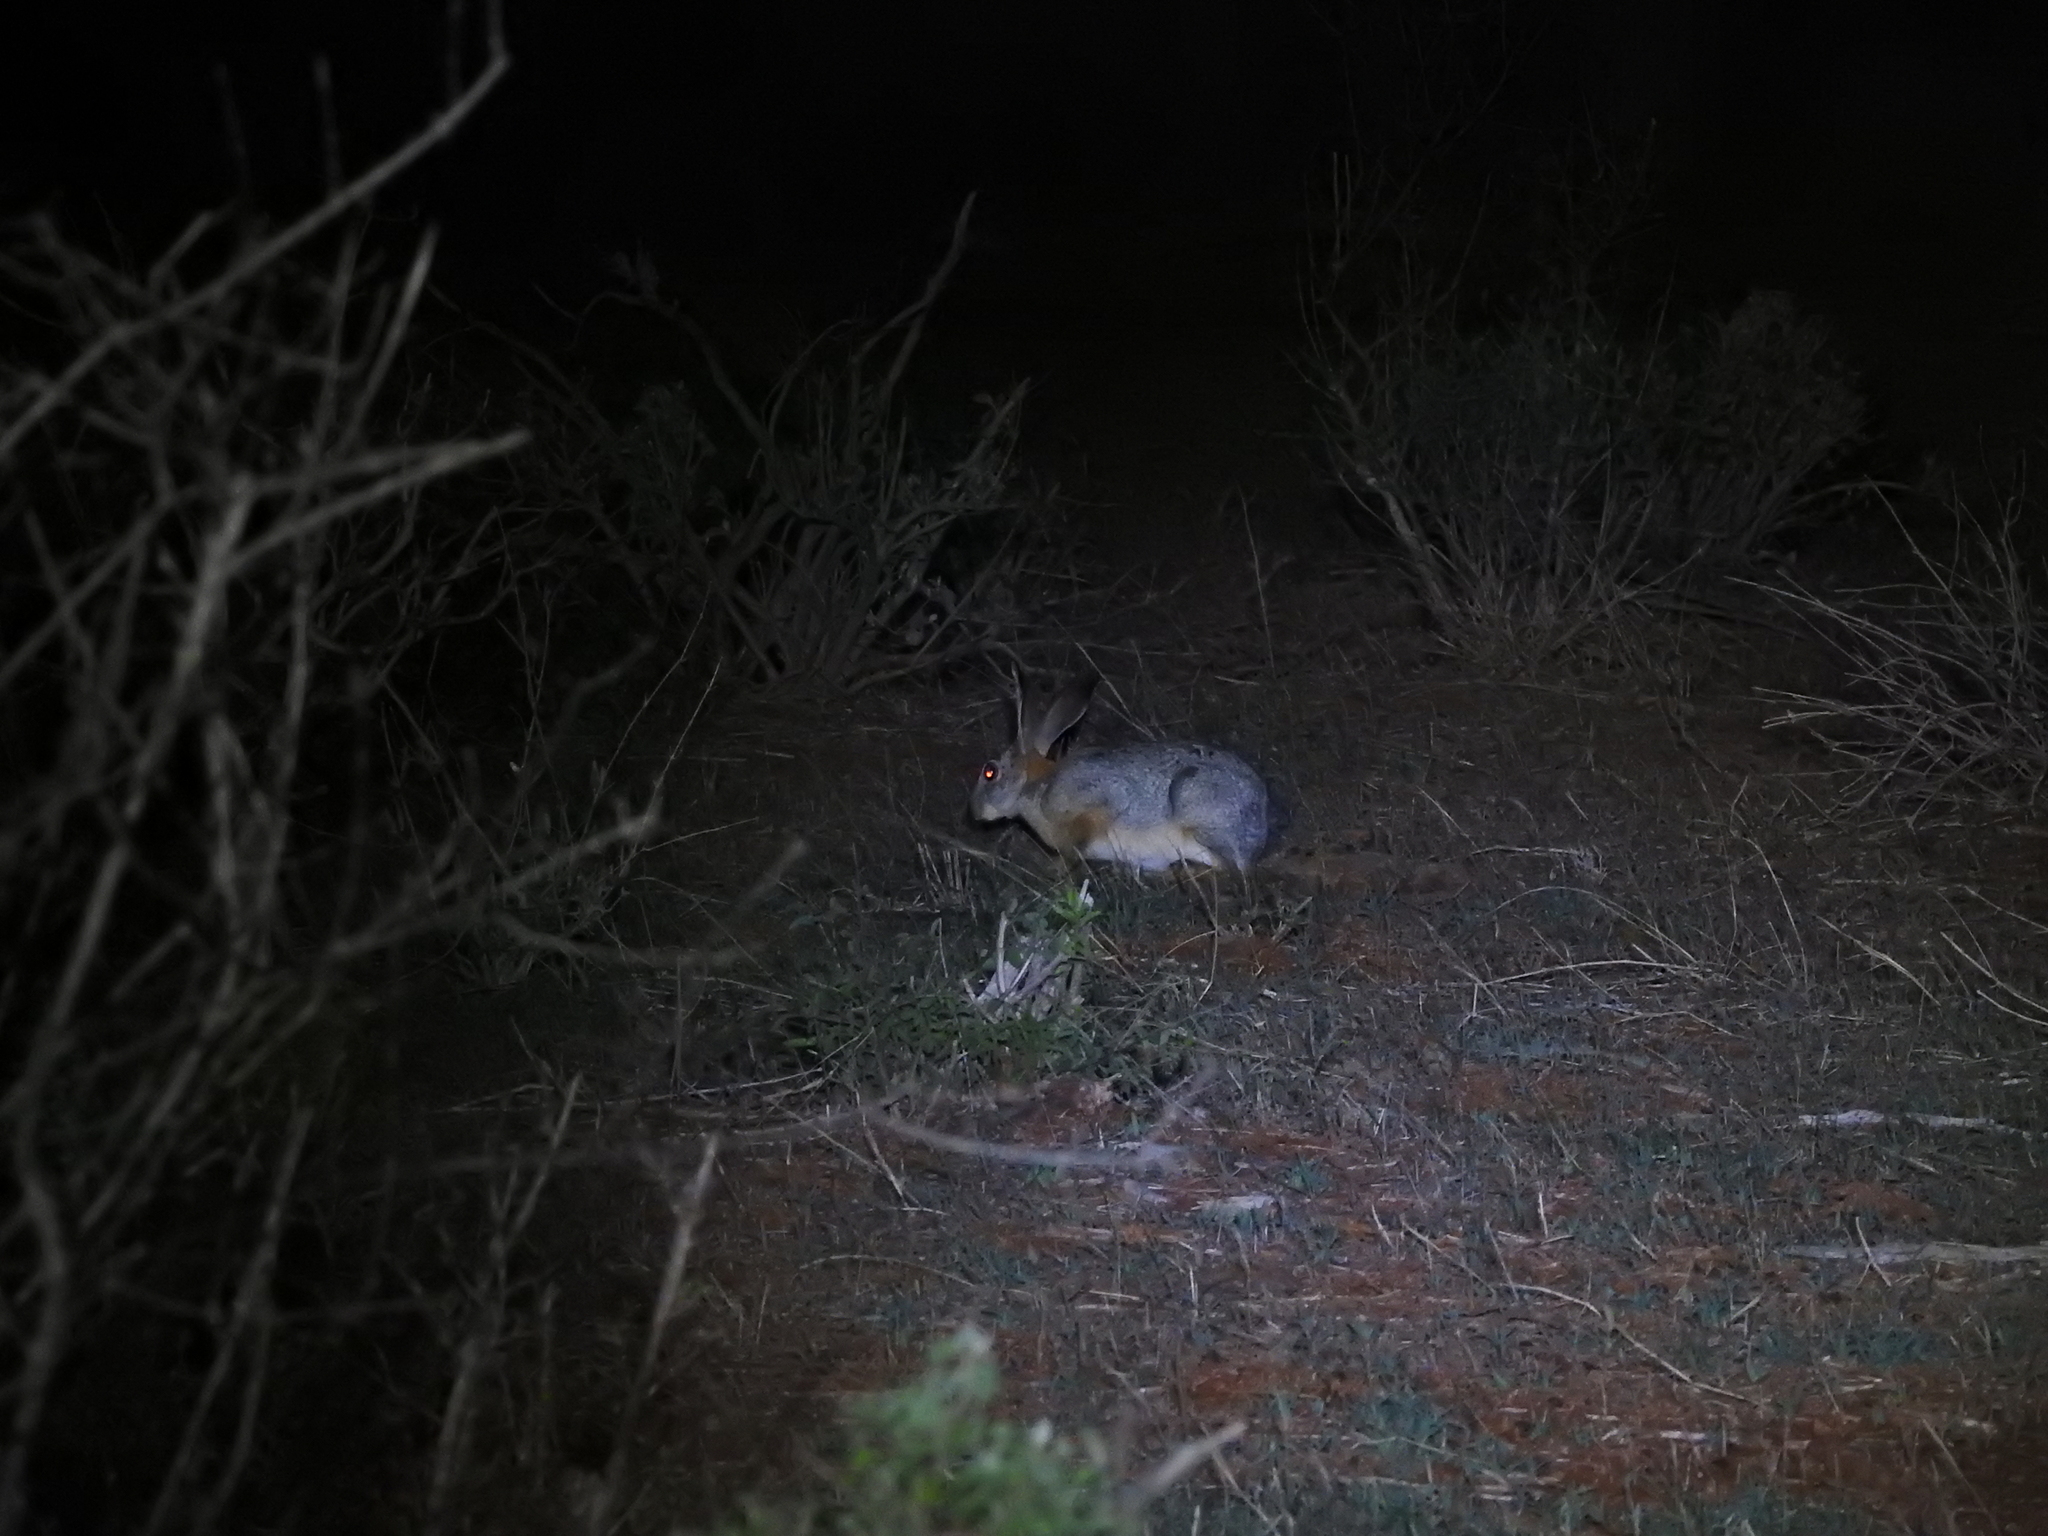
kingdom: Animalia
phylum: Chordata
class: Mammalia
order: Lagomorpha
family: Leporidae
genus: Lepus
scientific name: Lepus capensis
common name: Cape hare
